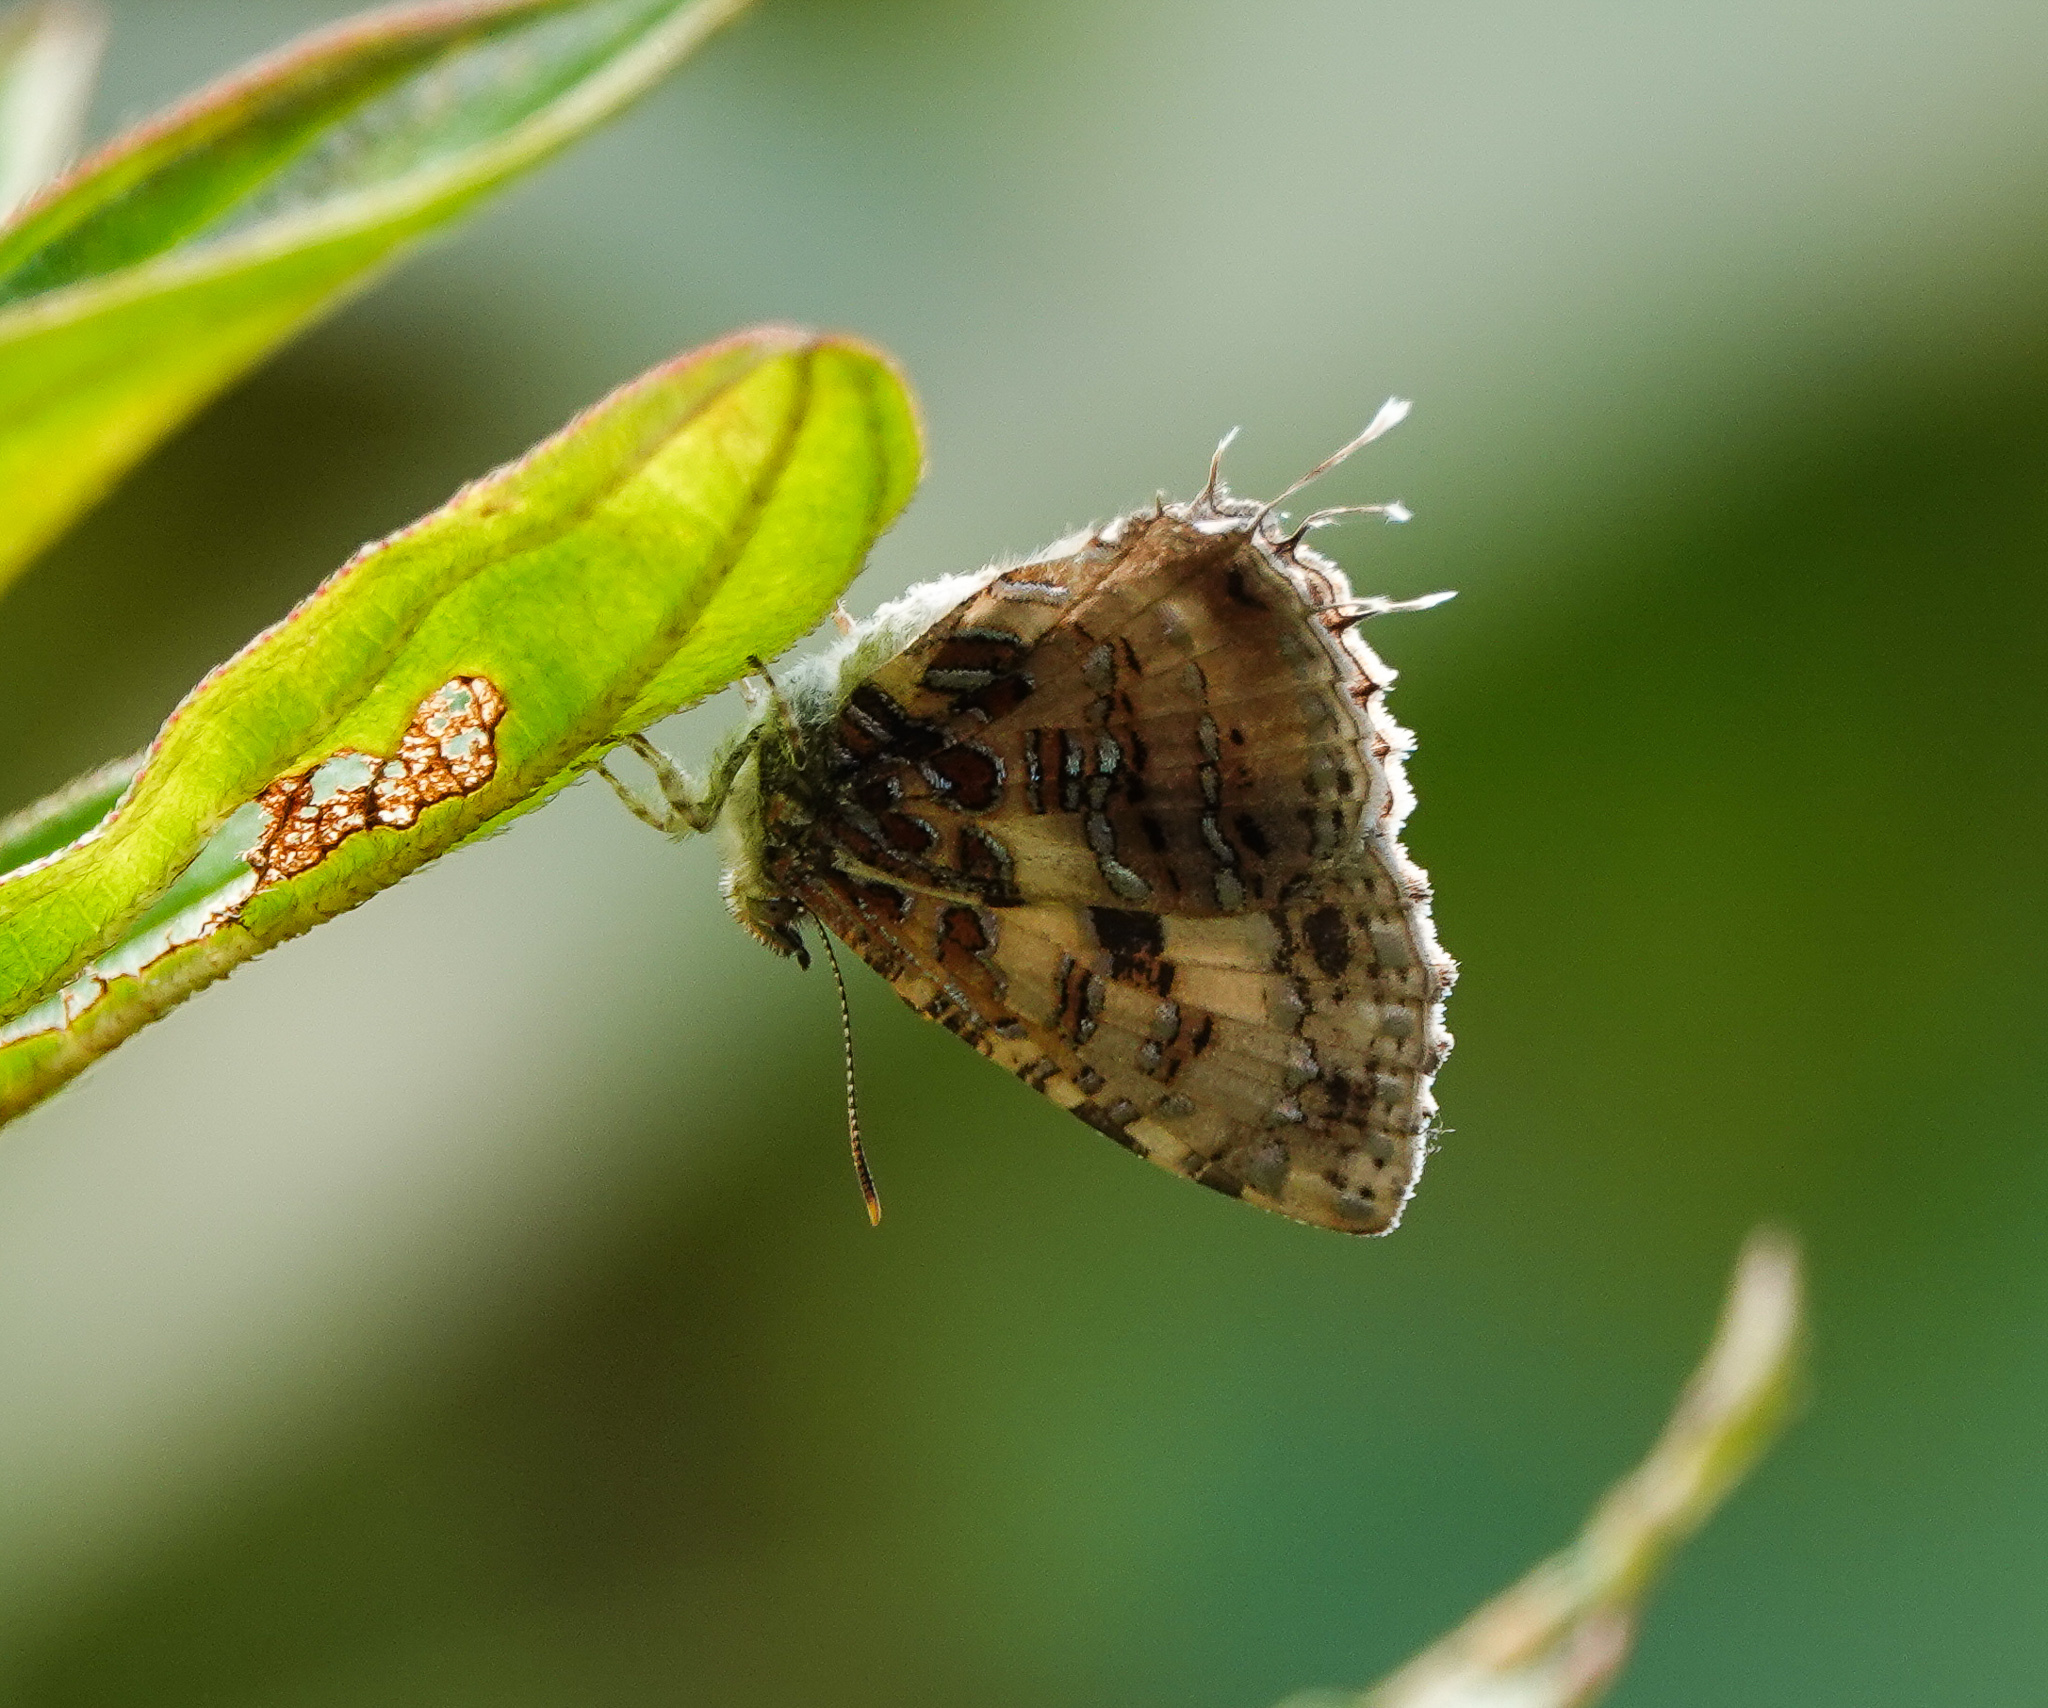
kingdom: Animalia
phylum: Arthropoda
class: Insecta
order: Lepidoptera
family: Lycaenidae
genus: Catapaecilma
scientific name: Catapaecilma major
